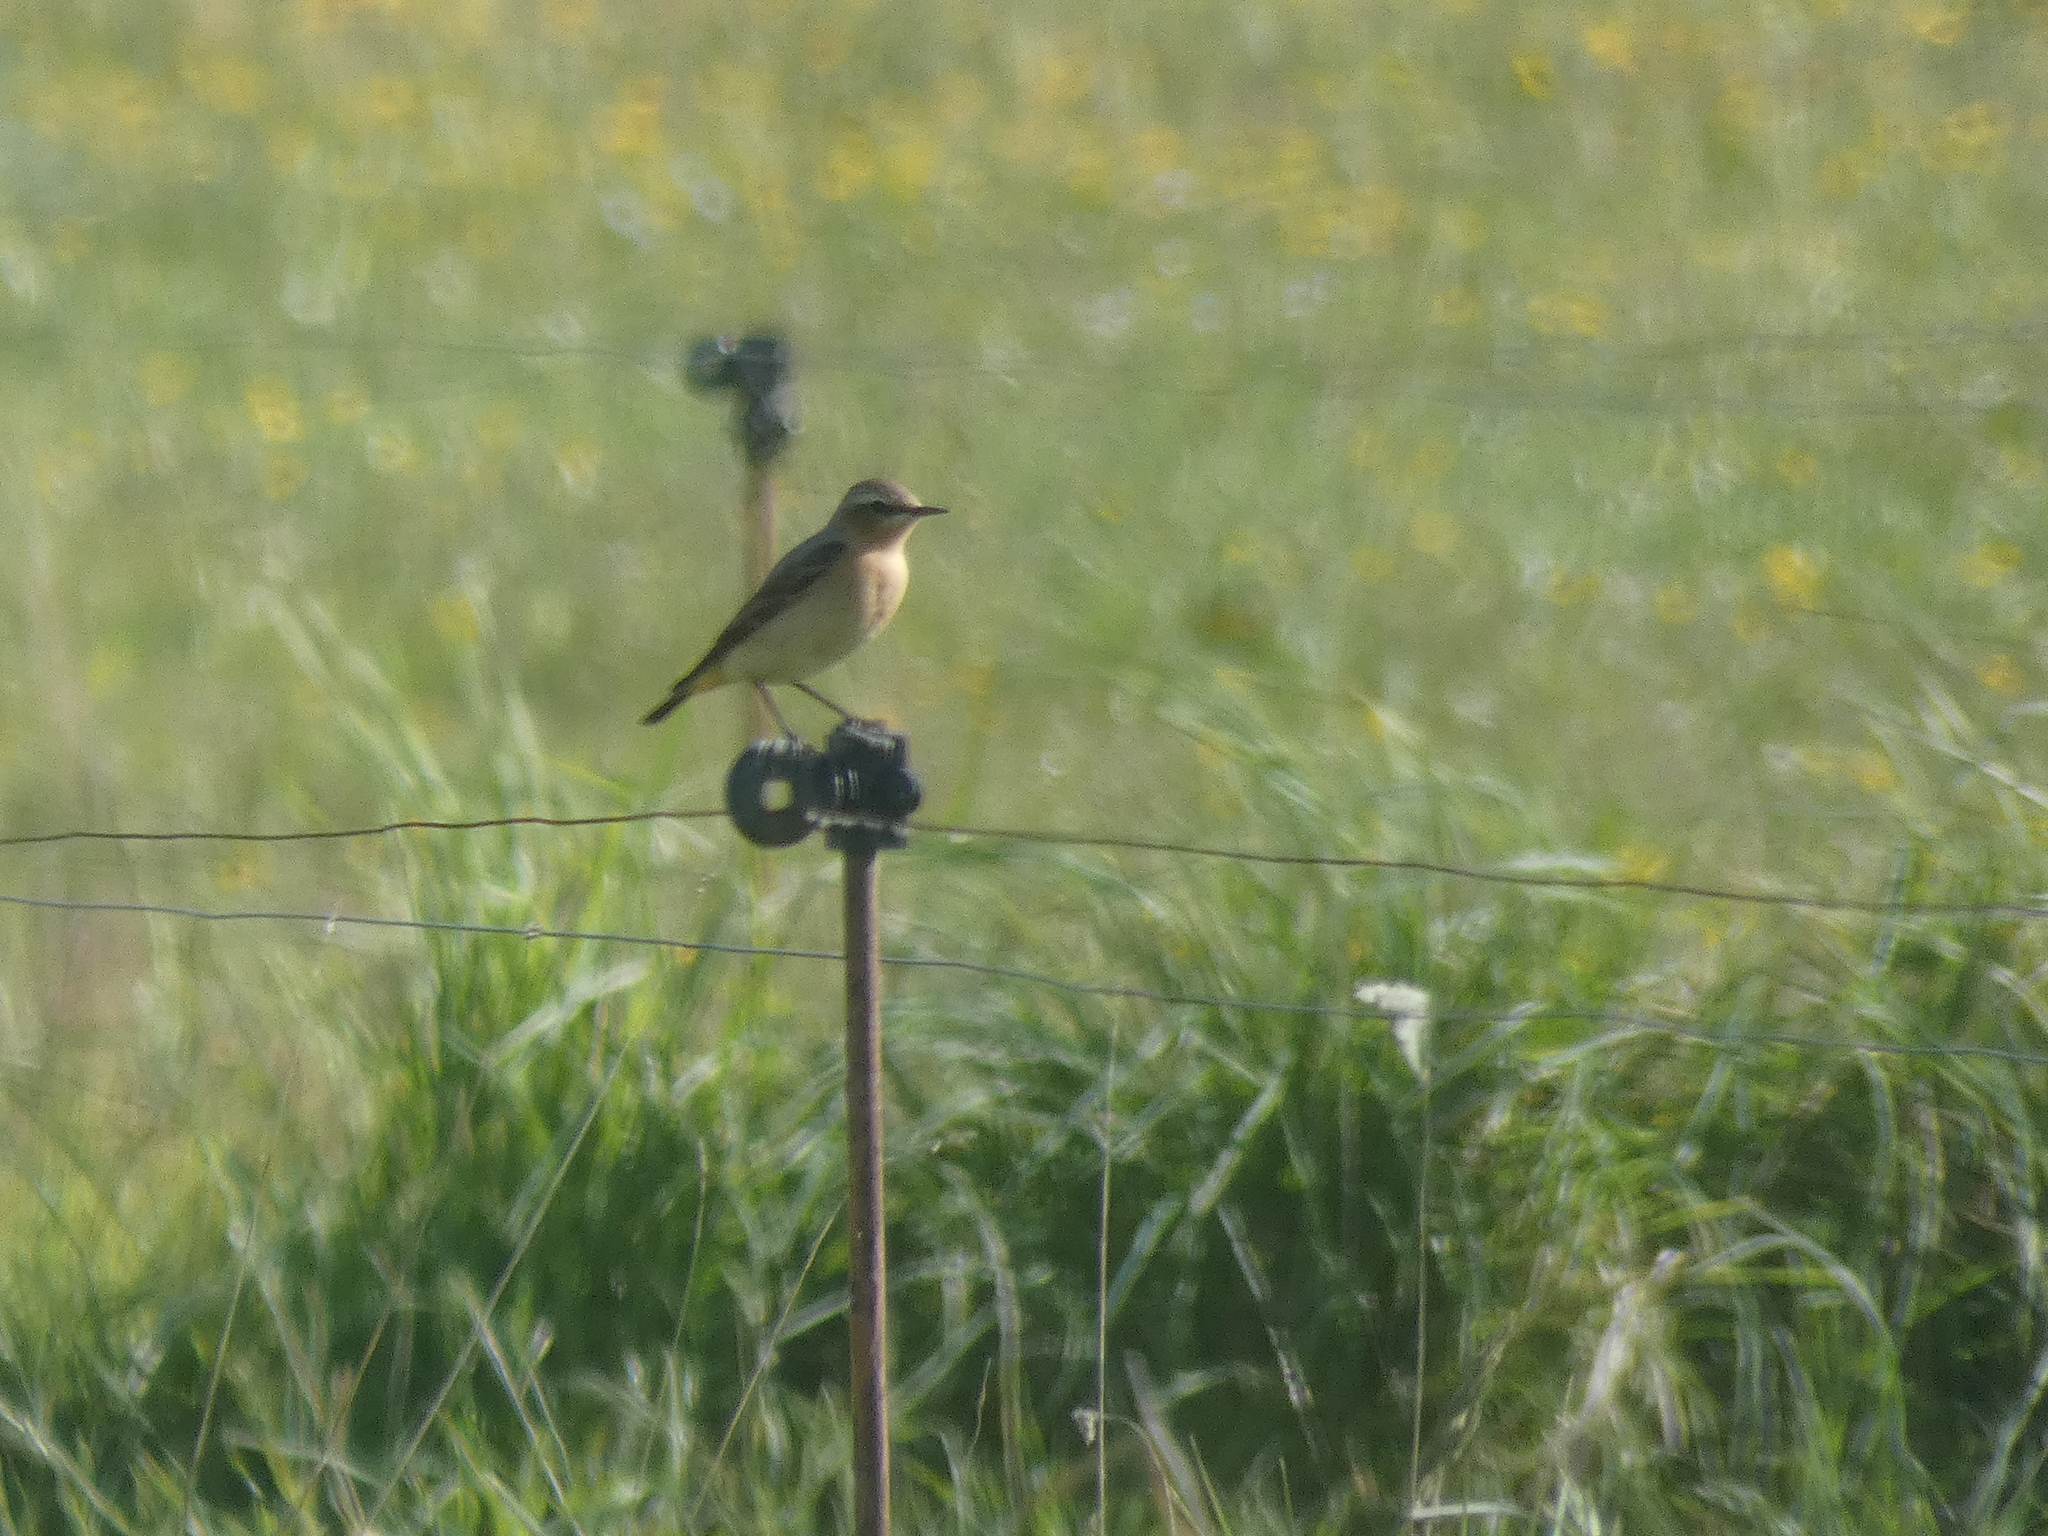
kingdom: Animalia
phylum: Chordata
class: Aves
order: Passeriformes
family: Muscicapidae
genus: Oenanthe
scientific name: Oenanthe oenanthe
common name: Northern wheatear
